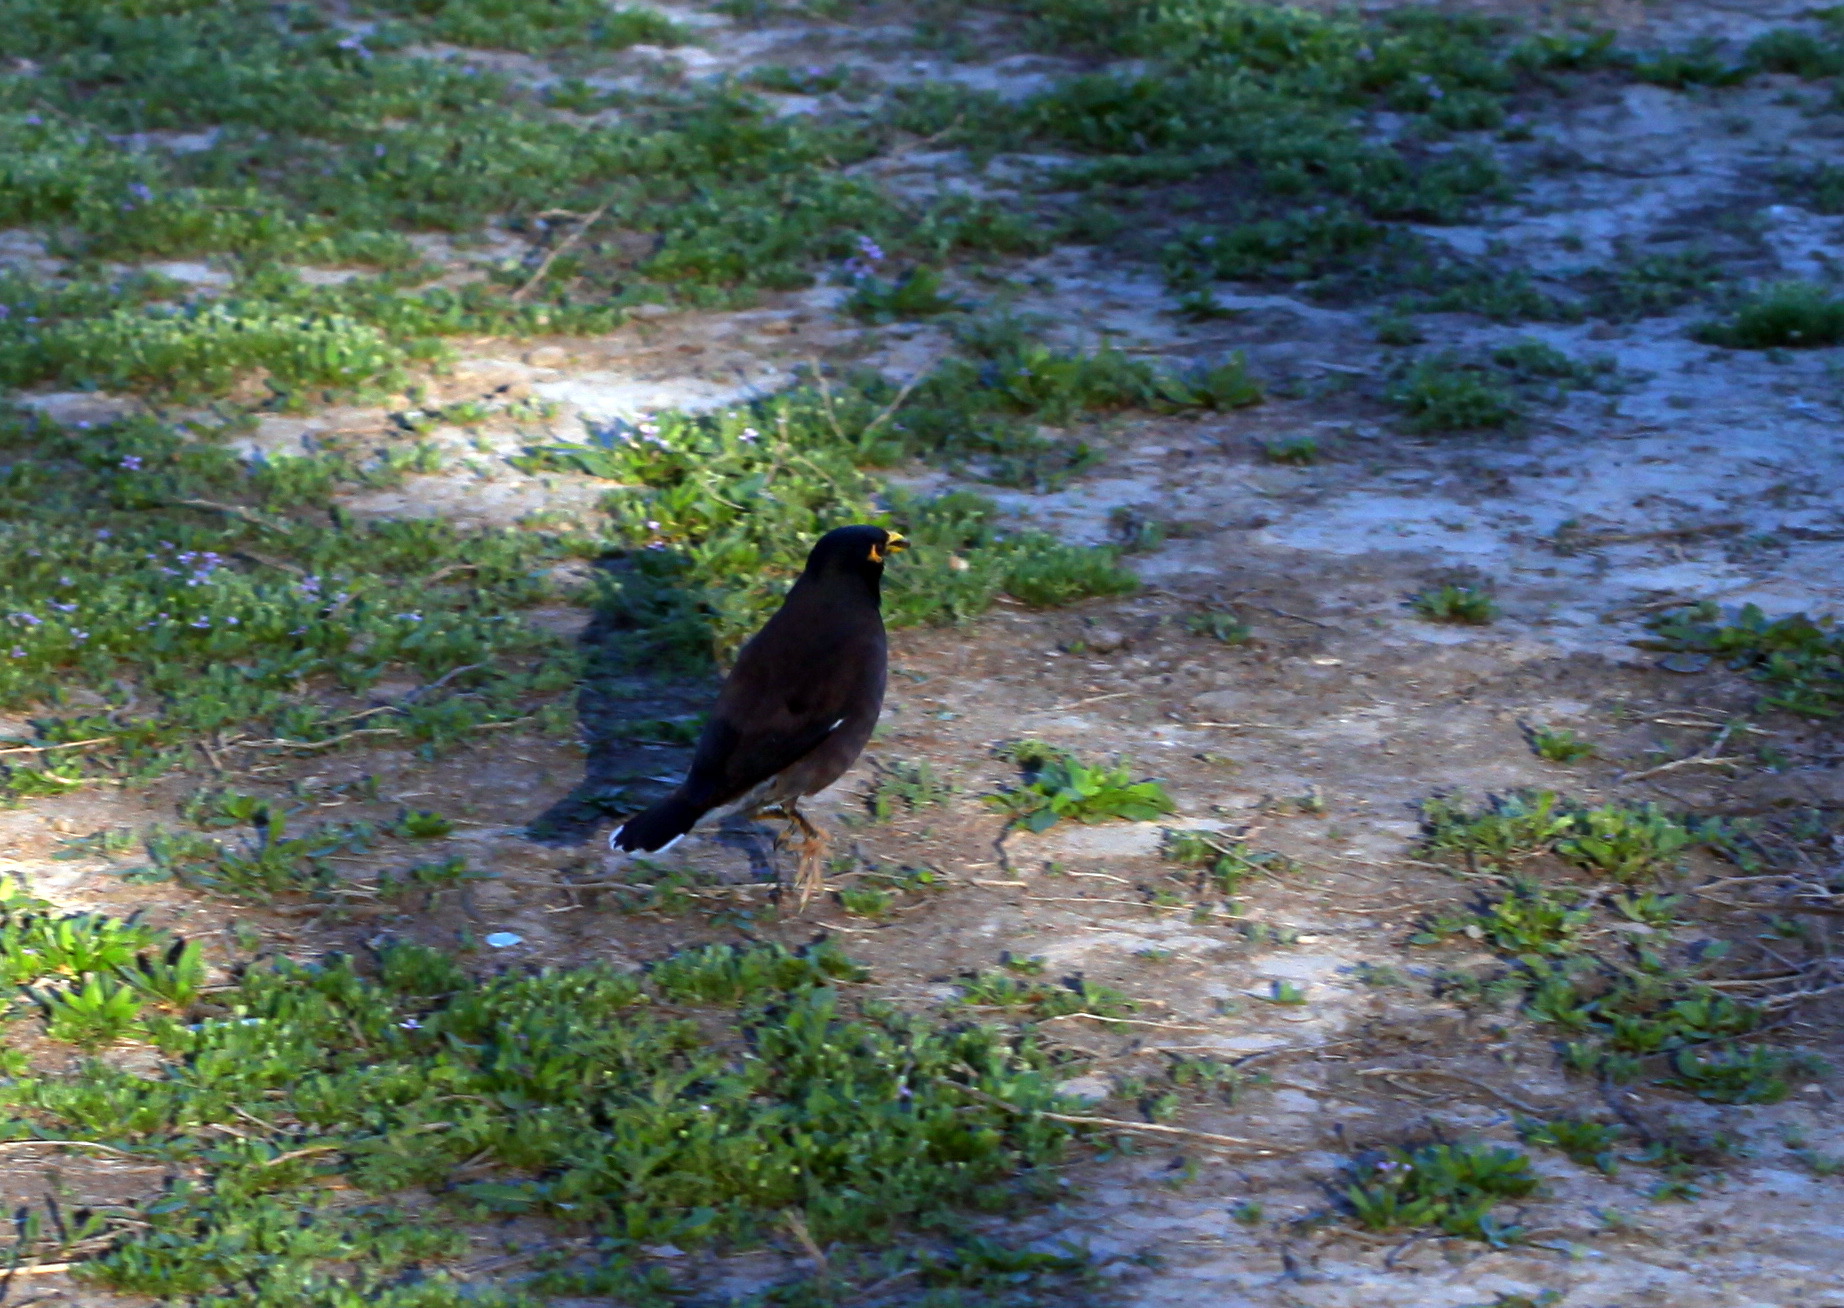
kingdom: Animalia
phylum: Chordata
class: Aves
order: Passeriformes
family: Sturnidae
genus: Acridotheres
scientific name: Acridotheres tristis
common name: Common myna
